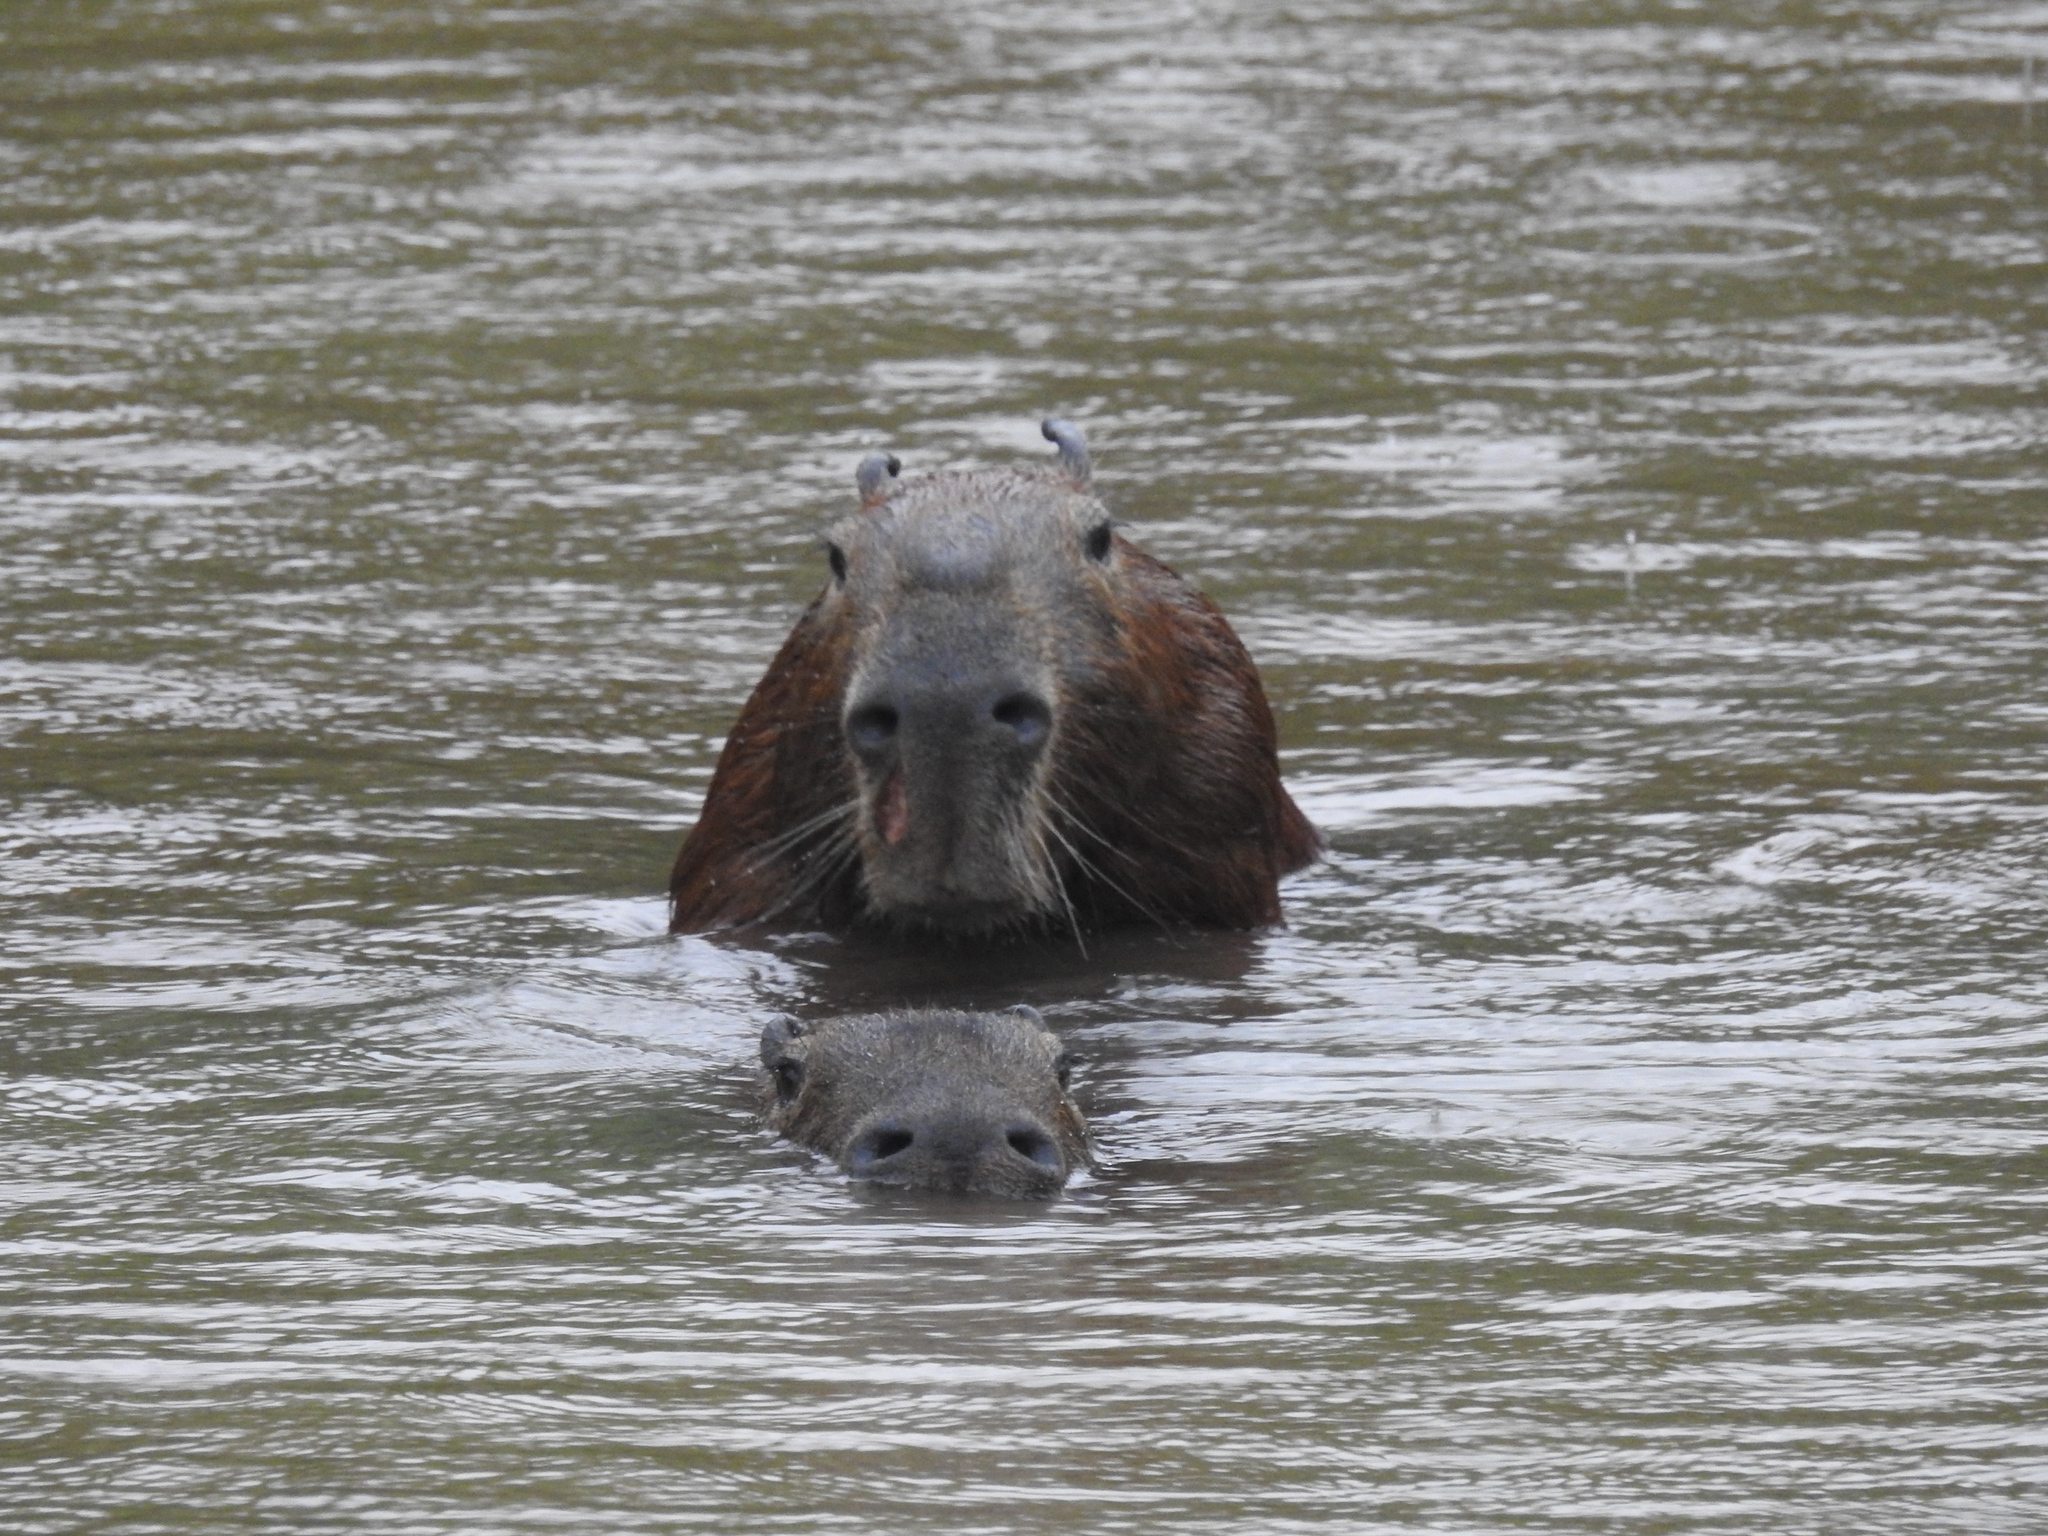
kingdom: Animalia
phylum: Chordata
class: Mammalia
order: Rodentia
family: Caviidae
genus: Hydrochoerus
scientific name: Hydrochoerus hydrochaeris
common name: Capybara
